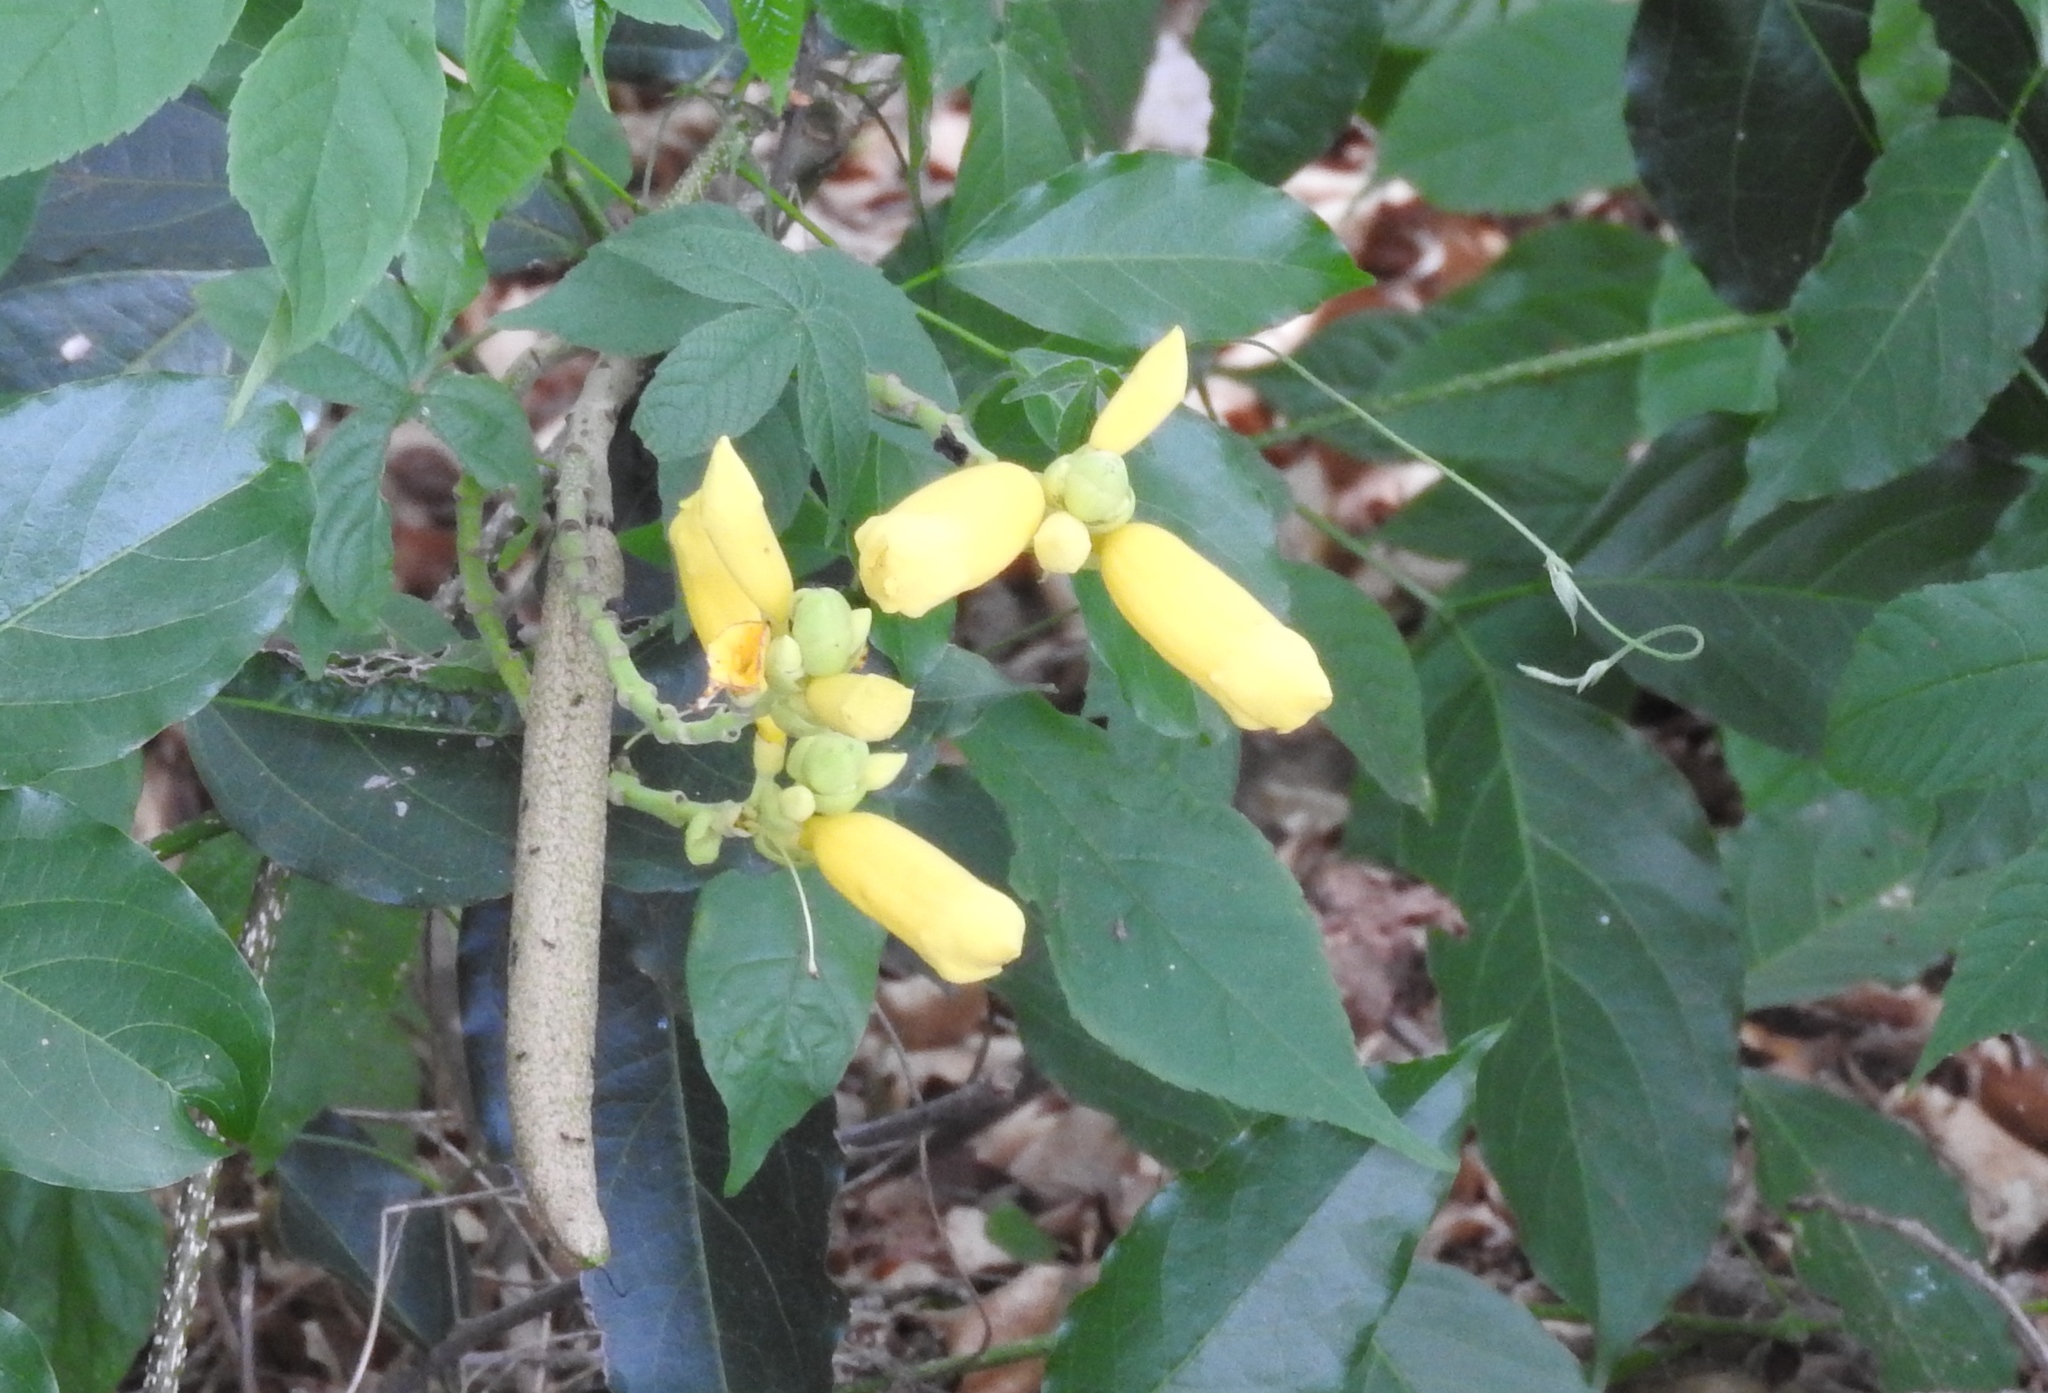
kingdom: Plantae
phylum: Tracheophyta
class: Magnoliopsida
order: Lamiales
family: Bignoniaceae
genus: Adenocalymma
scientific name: Adenocalymma inundatum
